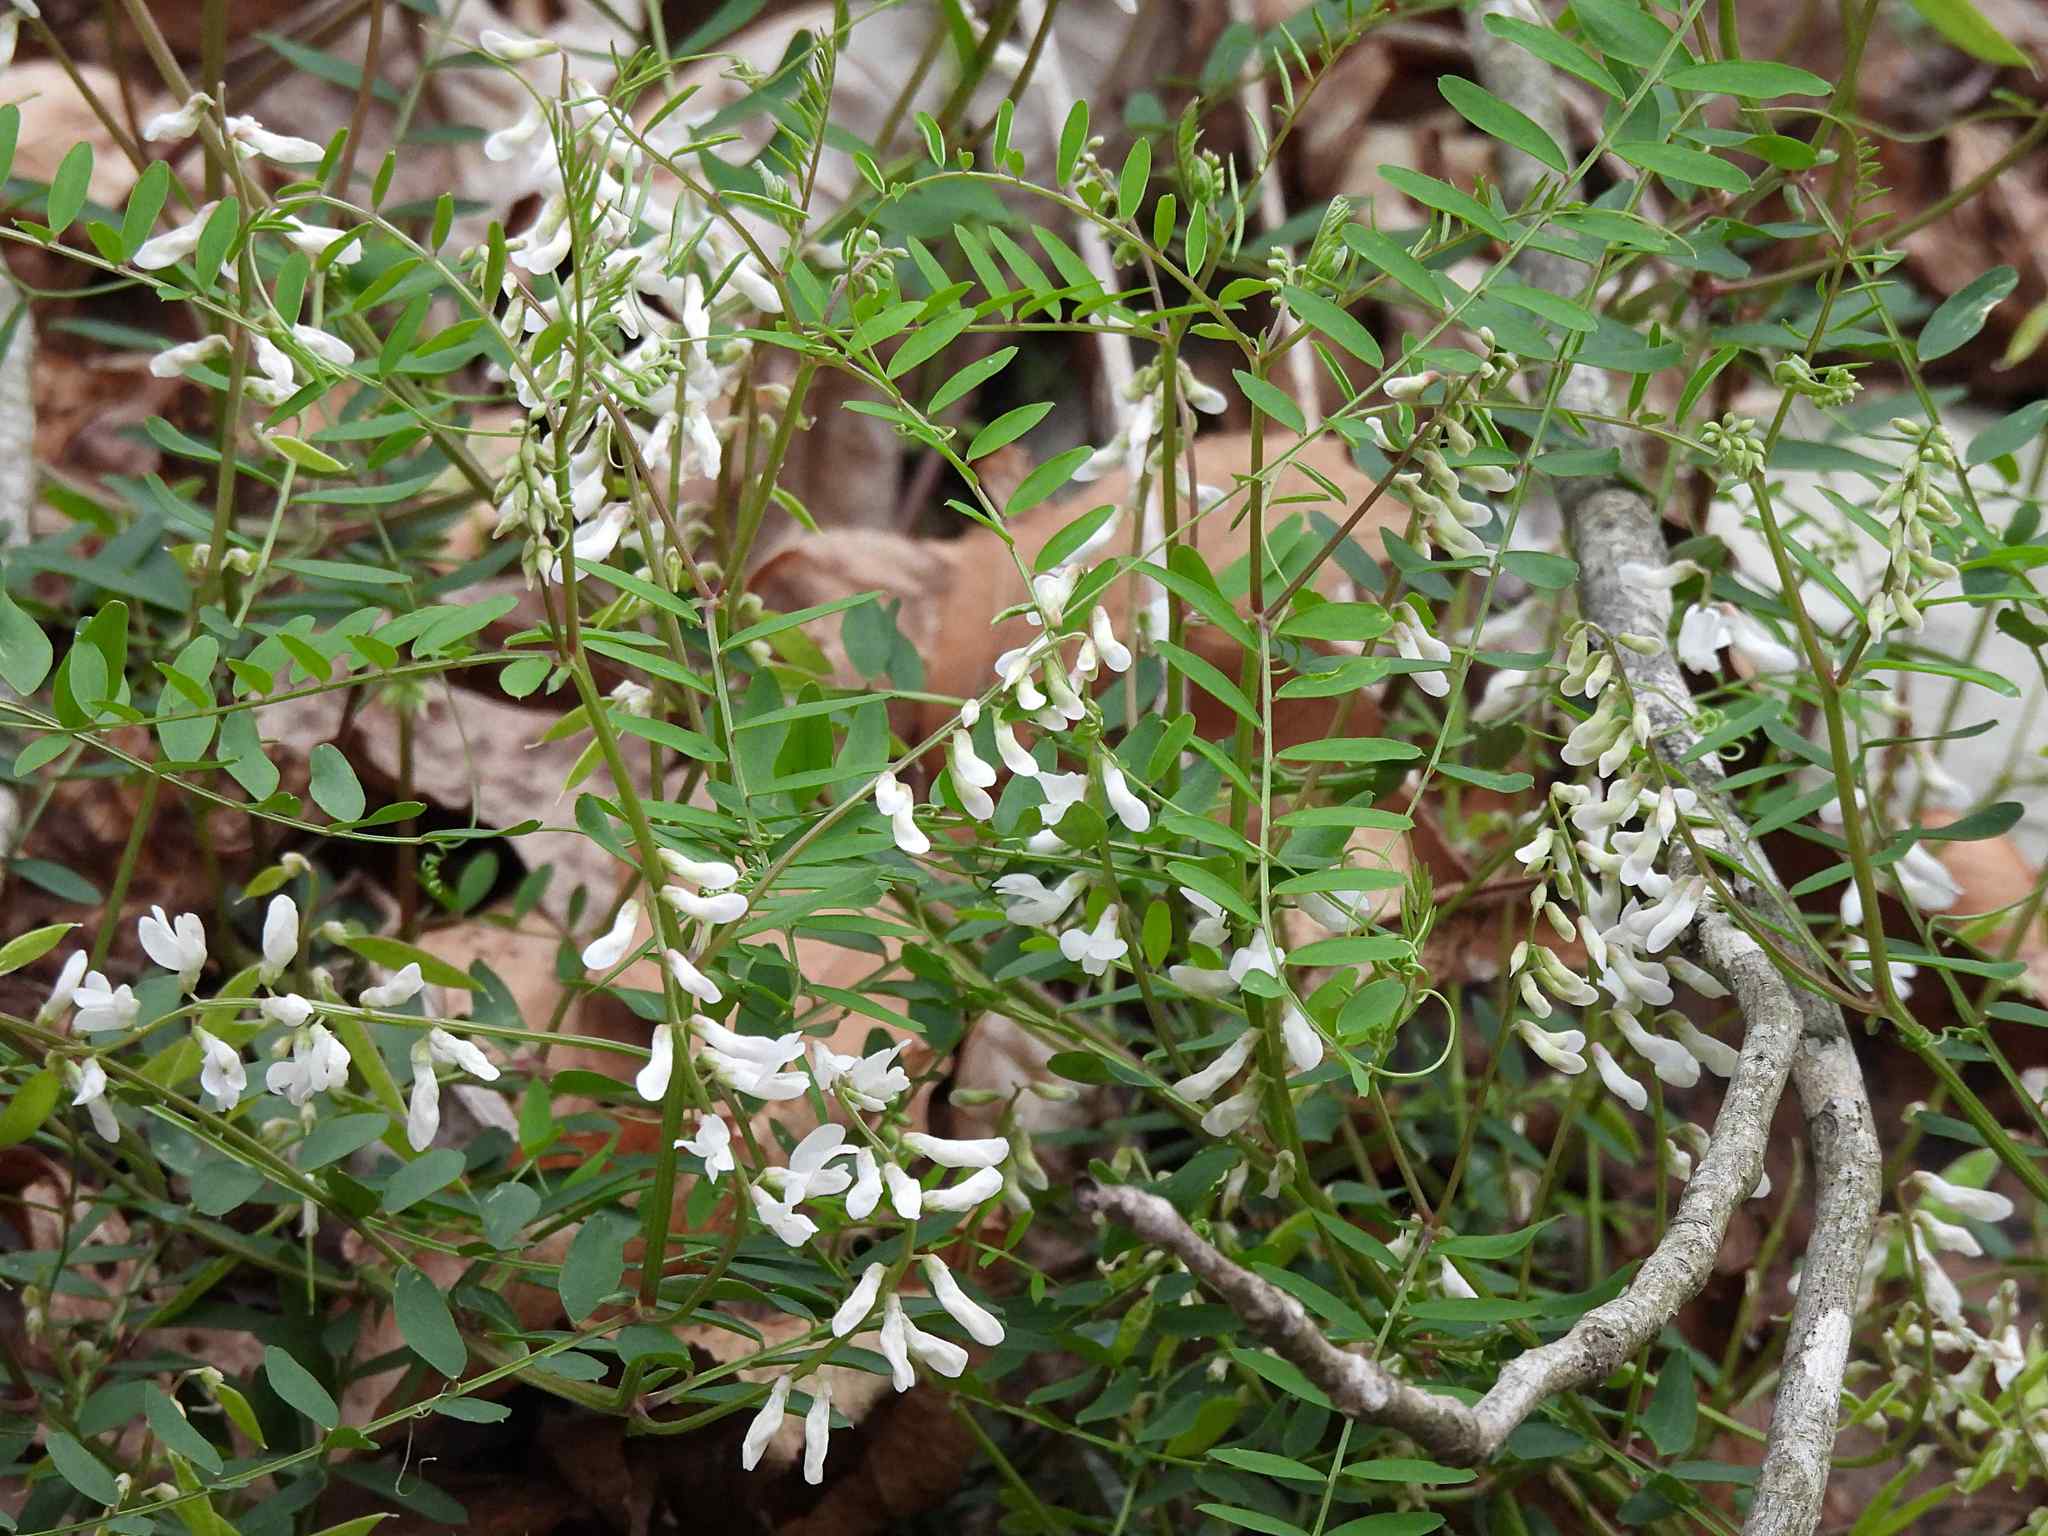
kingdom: Plantae
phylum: Tracheophyta
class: Magnoliopsida
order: Fabales
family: Fabaceae
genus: Vicia
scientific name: Vicia caroliniana
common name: Carolina vetch
